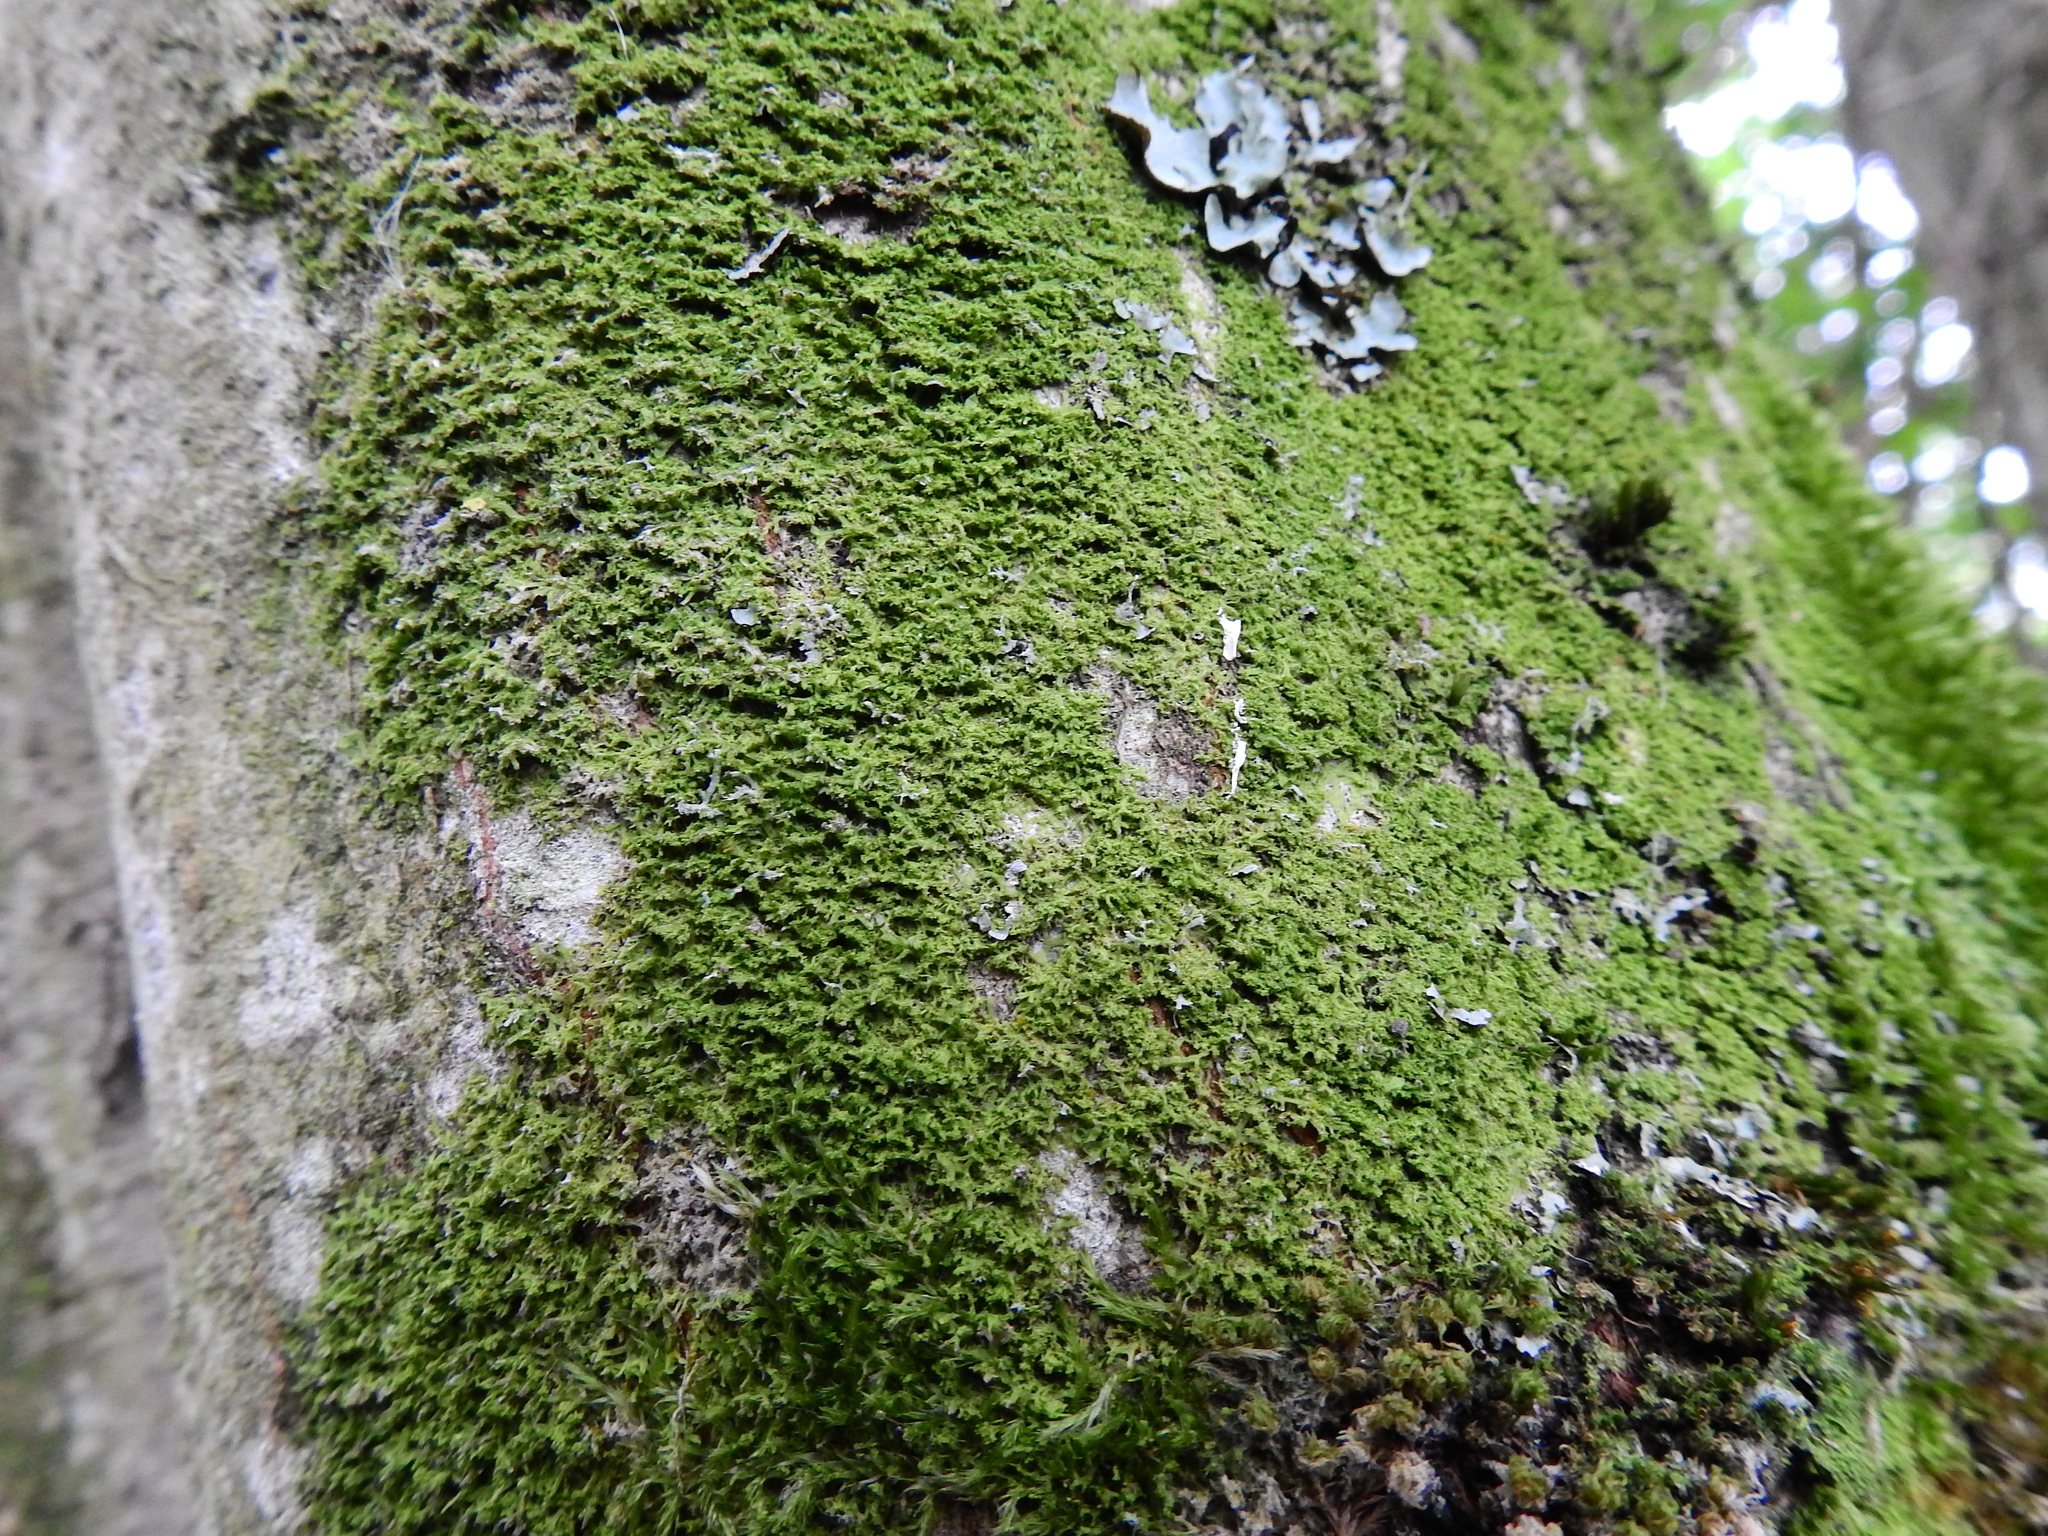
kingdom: Plantae
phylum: Marchantiophyta
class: Jungermanniopsida
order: Metzgeriales
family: Metzgeriaceae
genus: Metzgeria
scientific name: Metzgeria violacea
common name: Blueish veilwort
